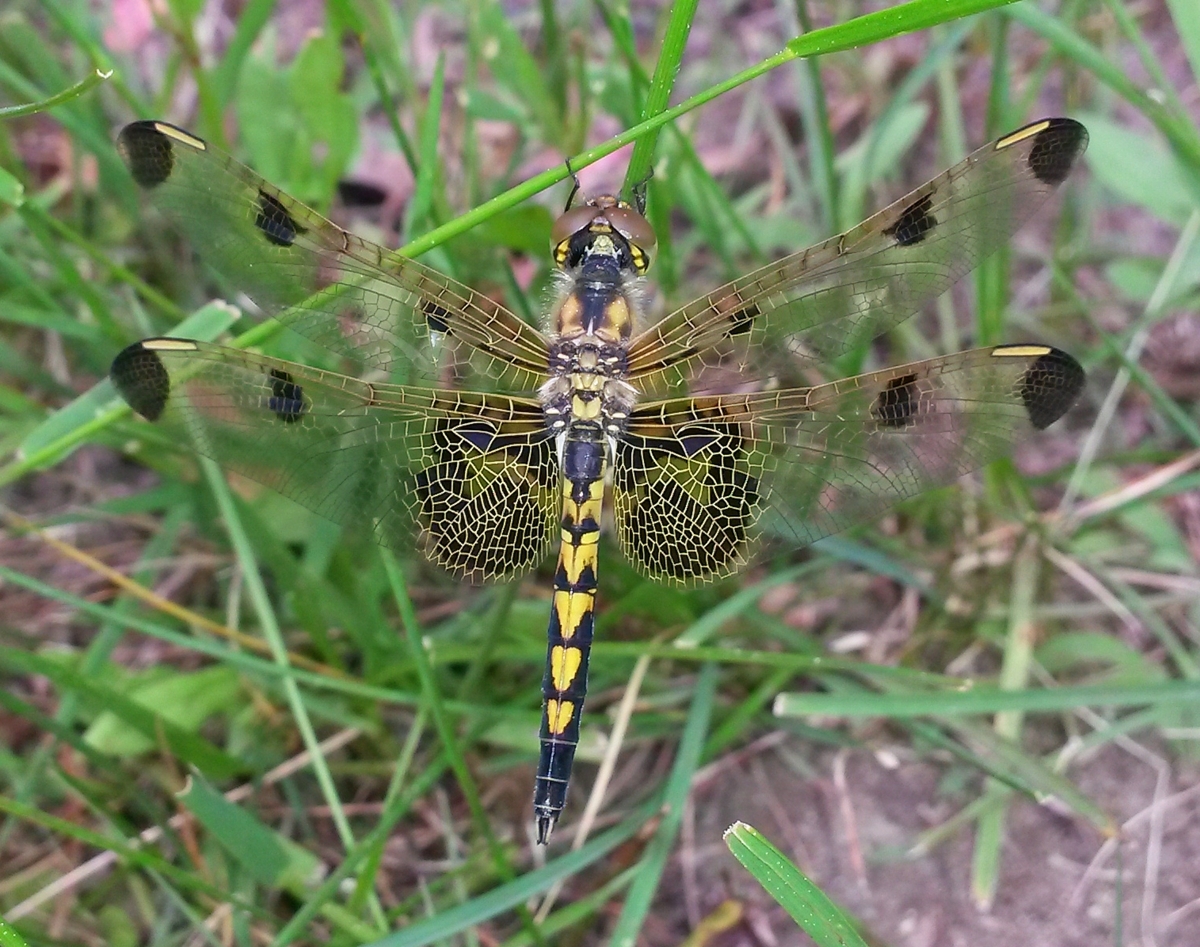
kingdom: Animalia
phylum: Arthropoda
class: Insecta
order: Odonata
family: Libellulidae
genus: Celithemis
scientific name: Celithemis elisa
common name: Calico pennant
